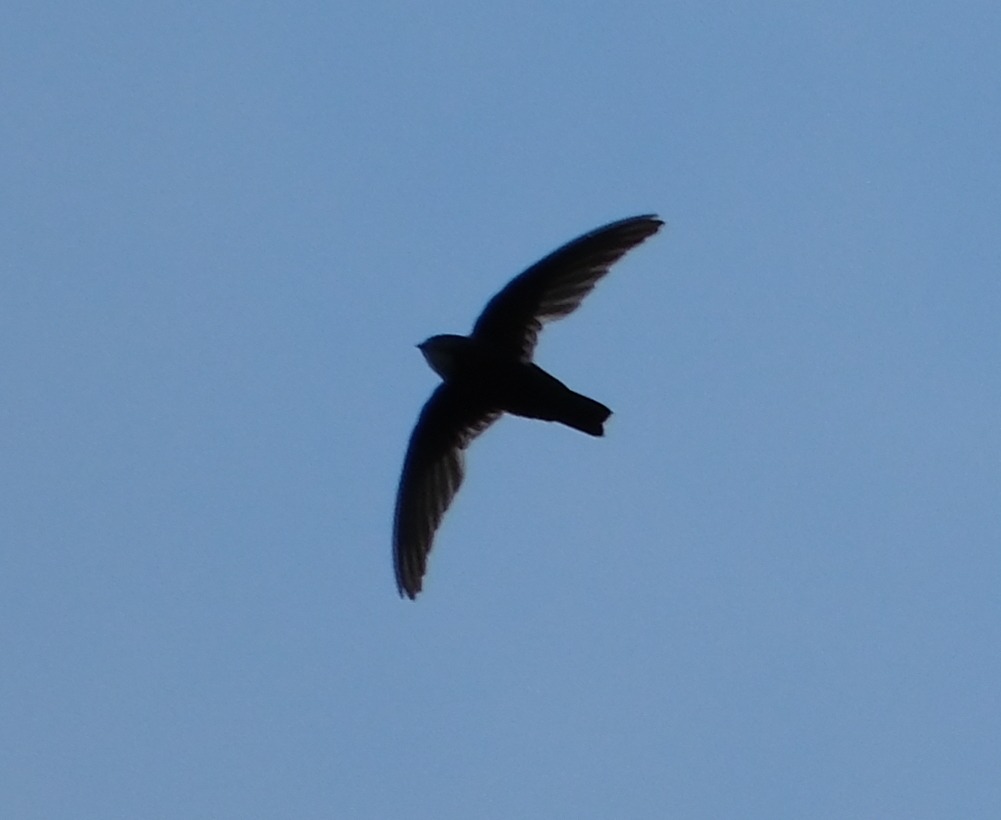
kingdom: Animalia
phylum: Chordata
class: Aves
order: Apodiformes
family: Apodidae
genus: Apus
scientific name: Apus nipalensis
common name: House swift
